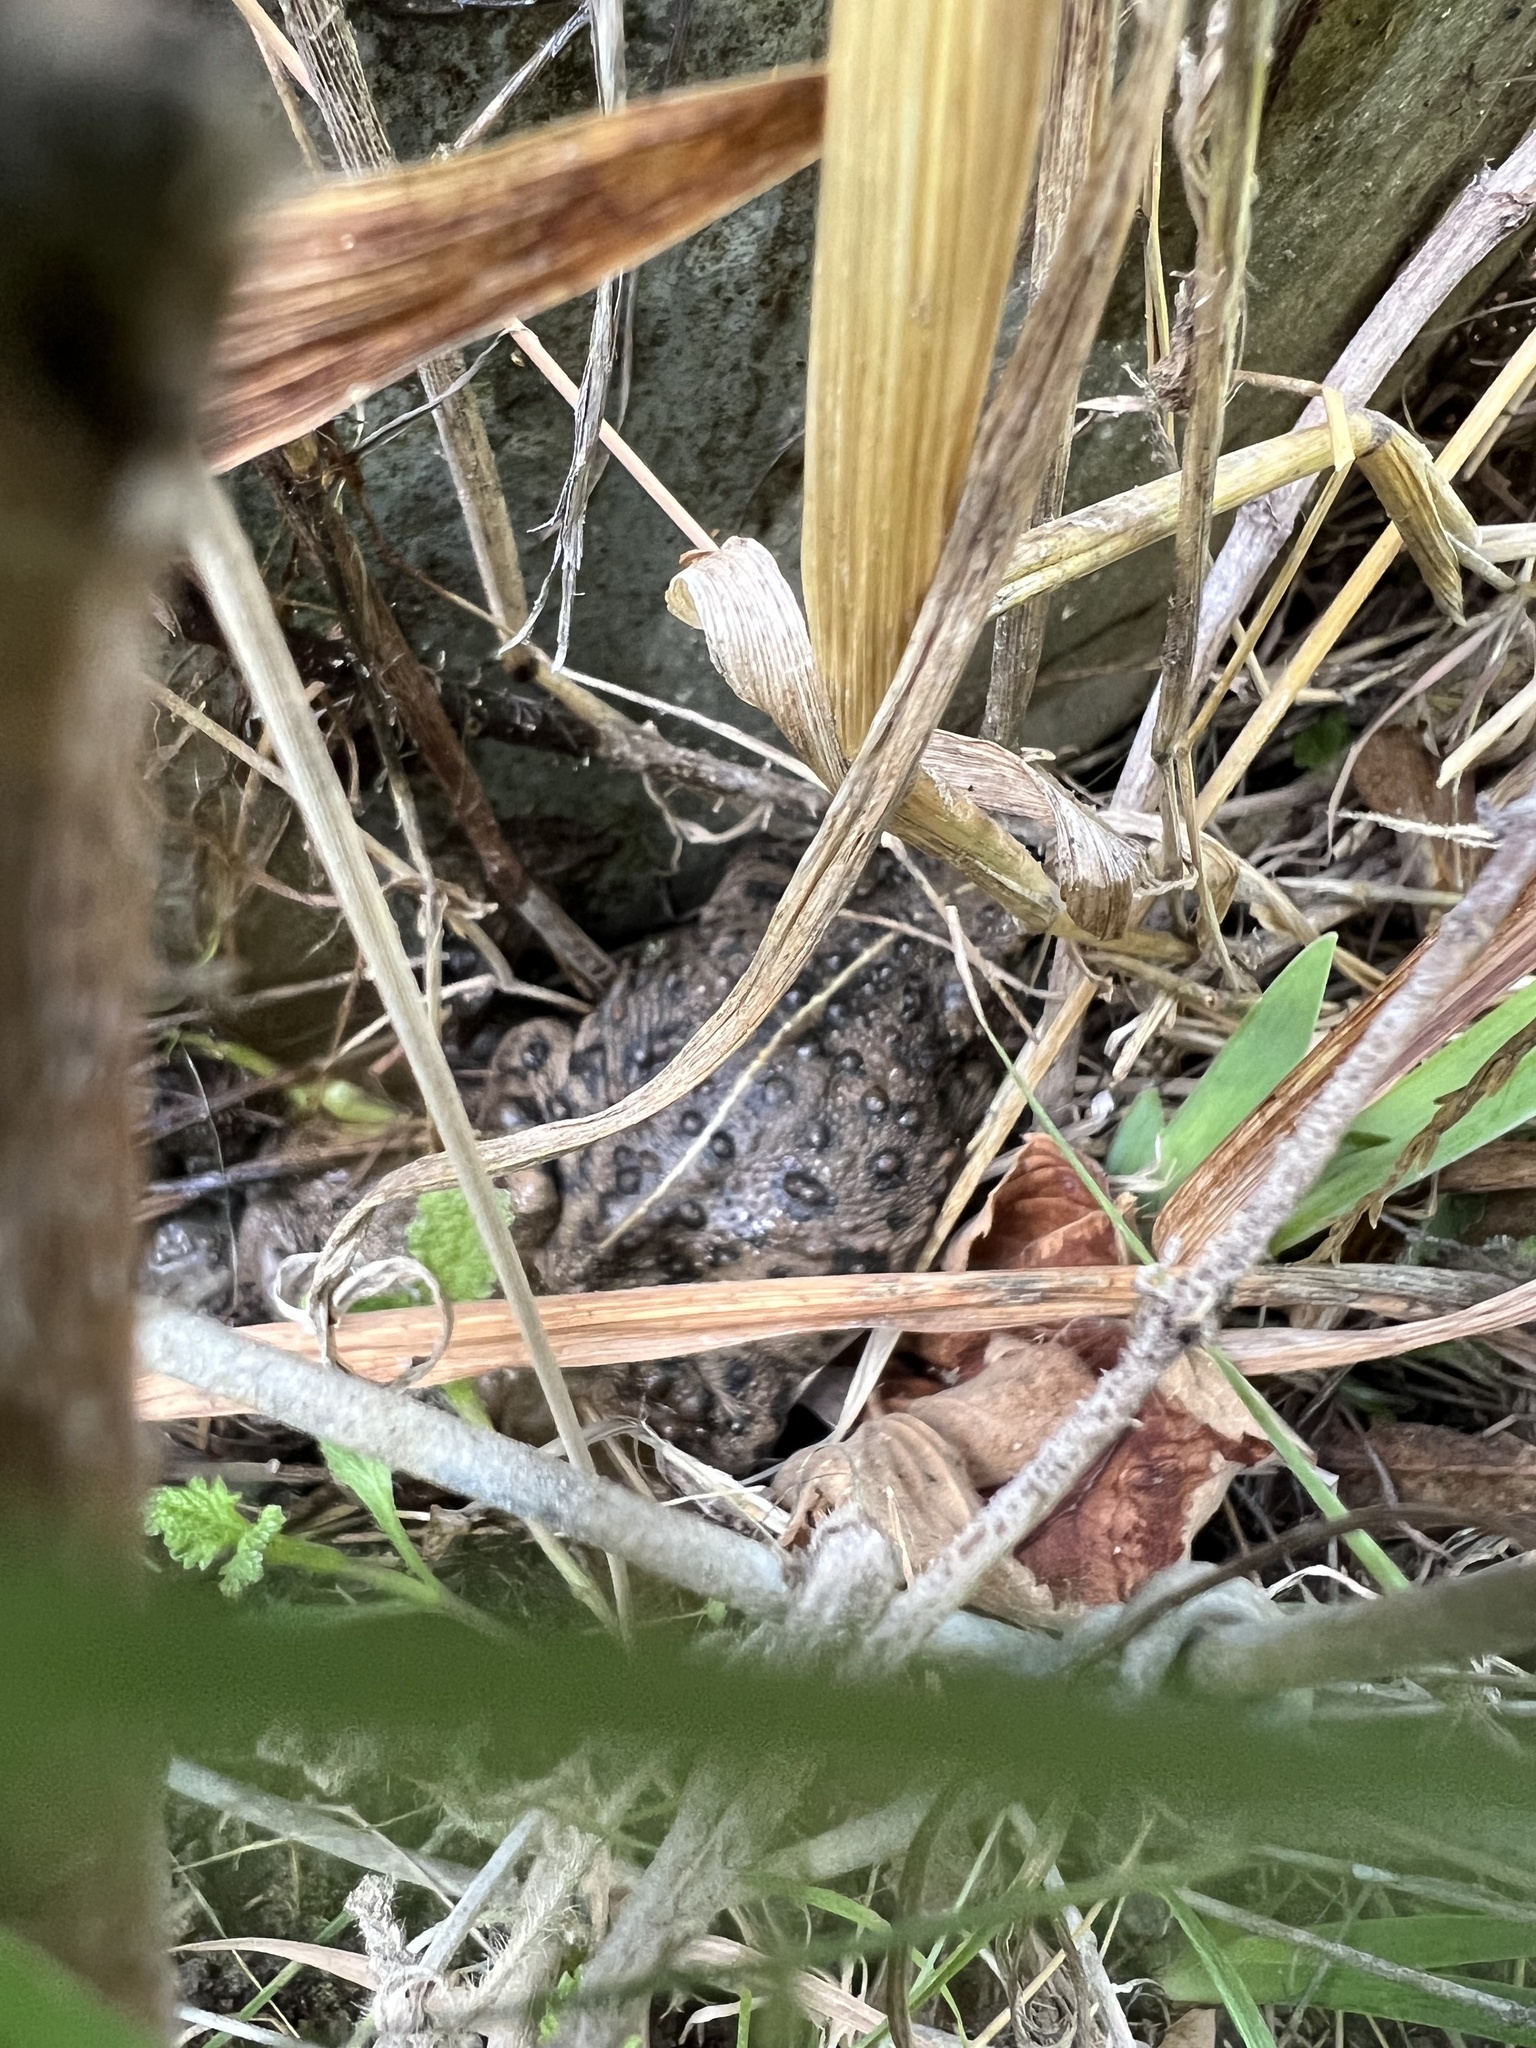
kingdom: Animalia
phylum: Chordata
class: Amphibia
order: Anura
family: Bufonidae
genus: Anaxyrus
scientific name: Anaxyrus boreas
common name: Western toad
